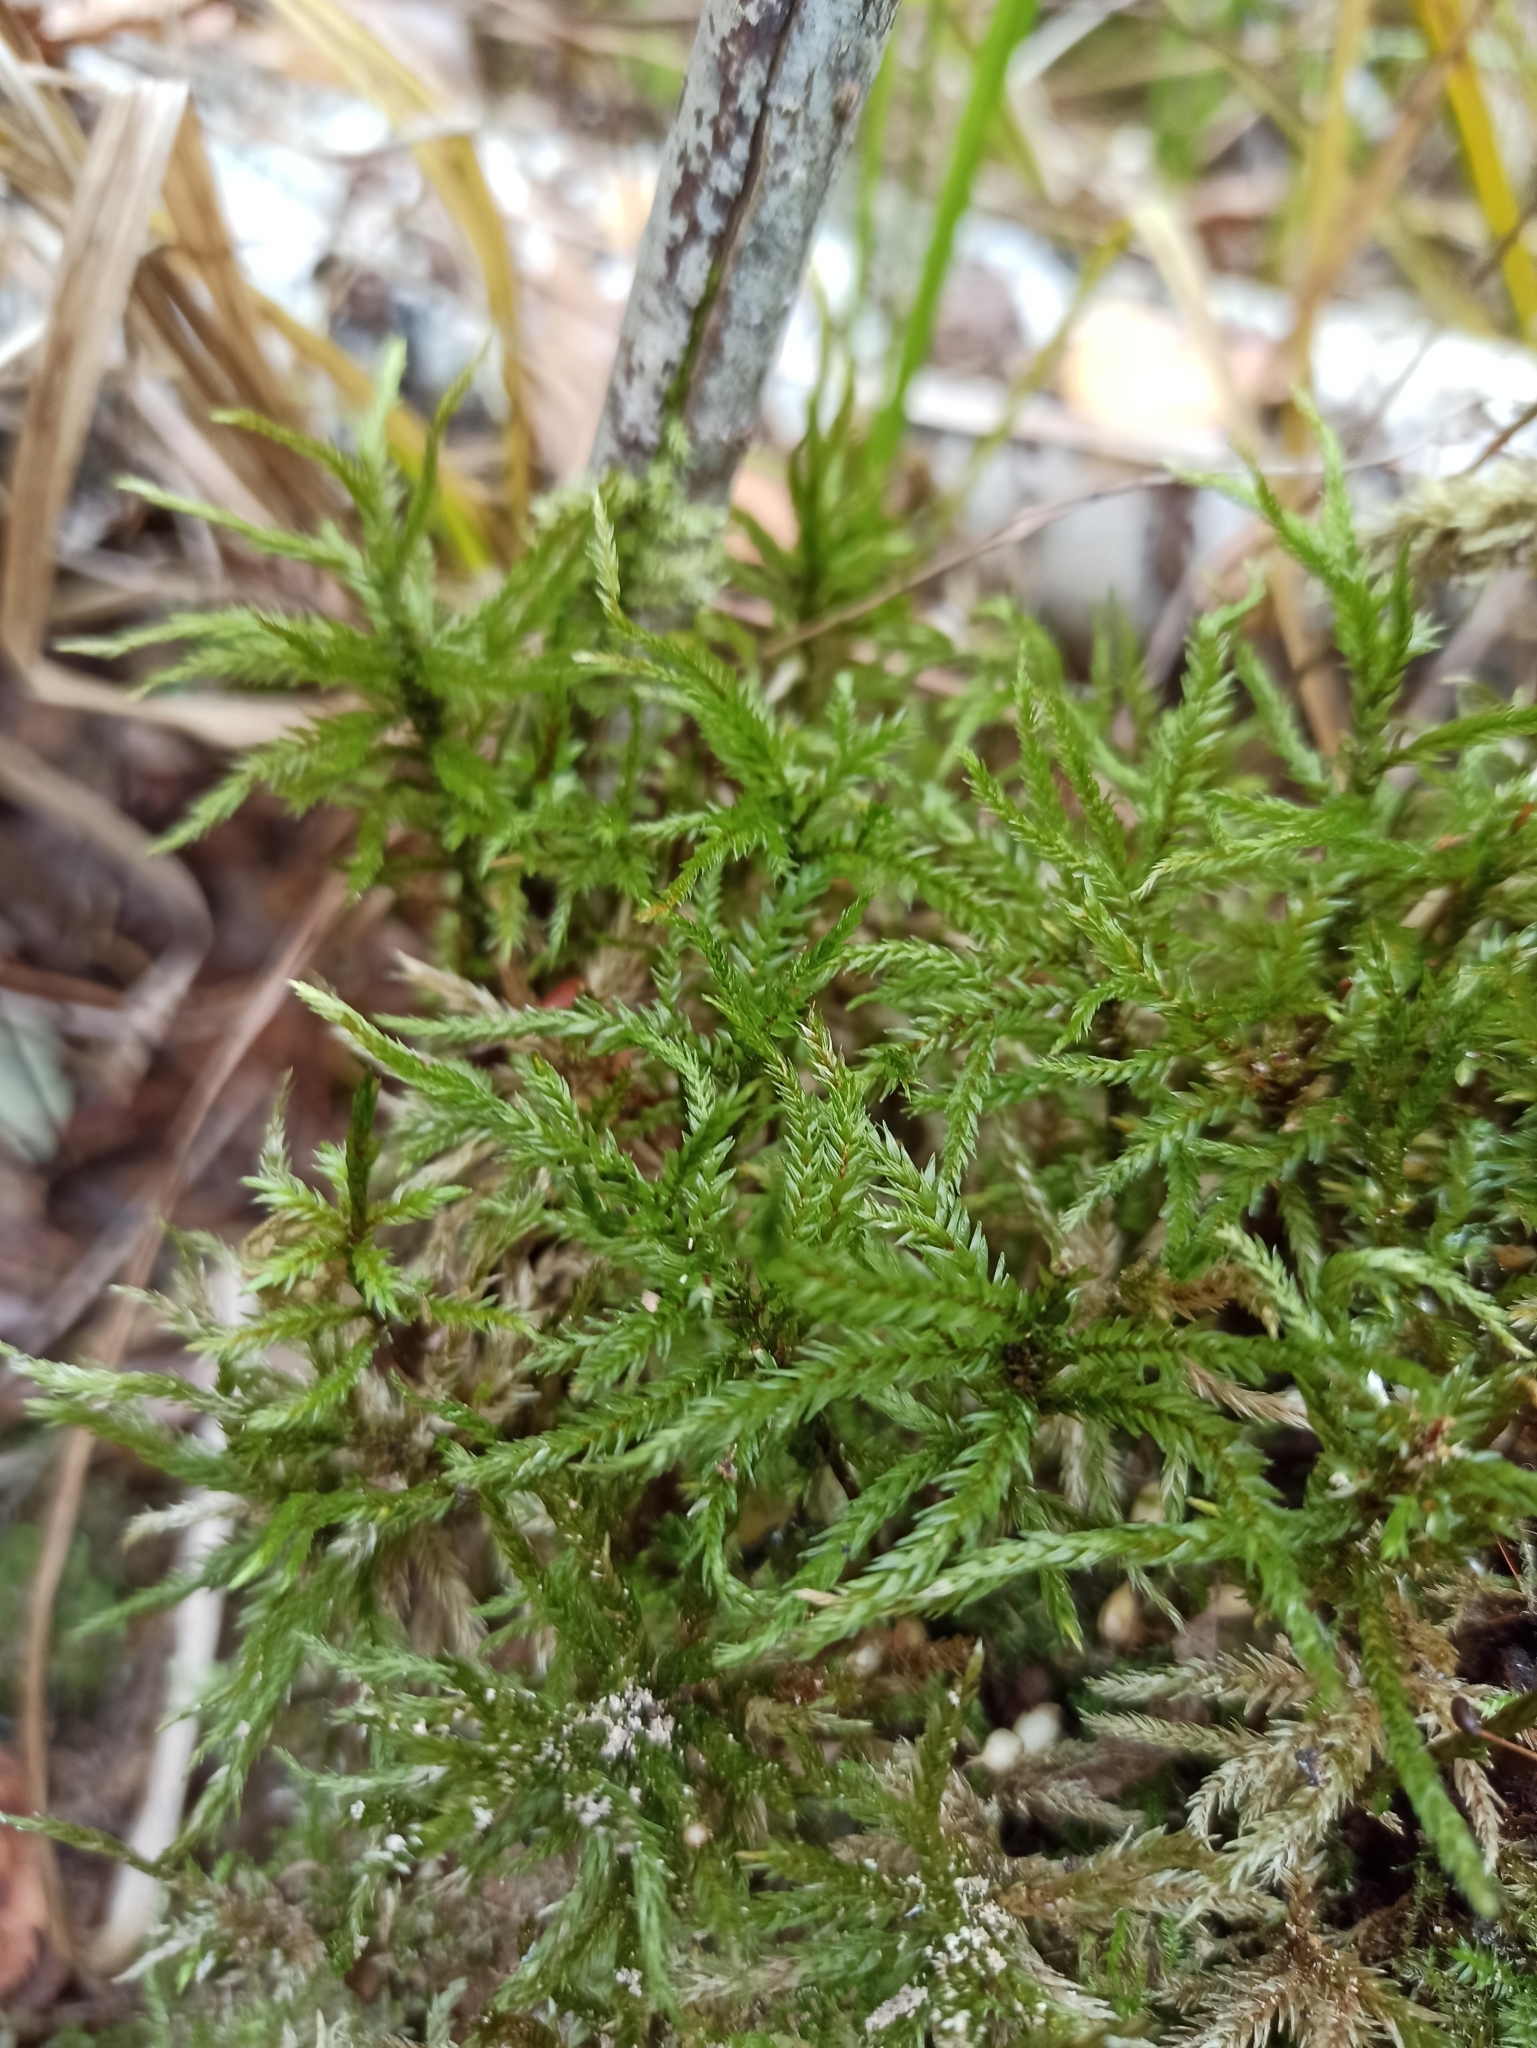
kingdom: Plantae
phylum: Bryophyta
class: Bryopsida
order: Hypnales
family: Climaciaceae
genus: Climacium
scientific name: Climacium dendroides
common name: Northern tree moss
